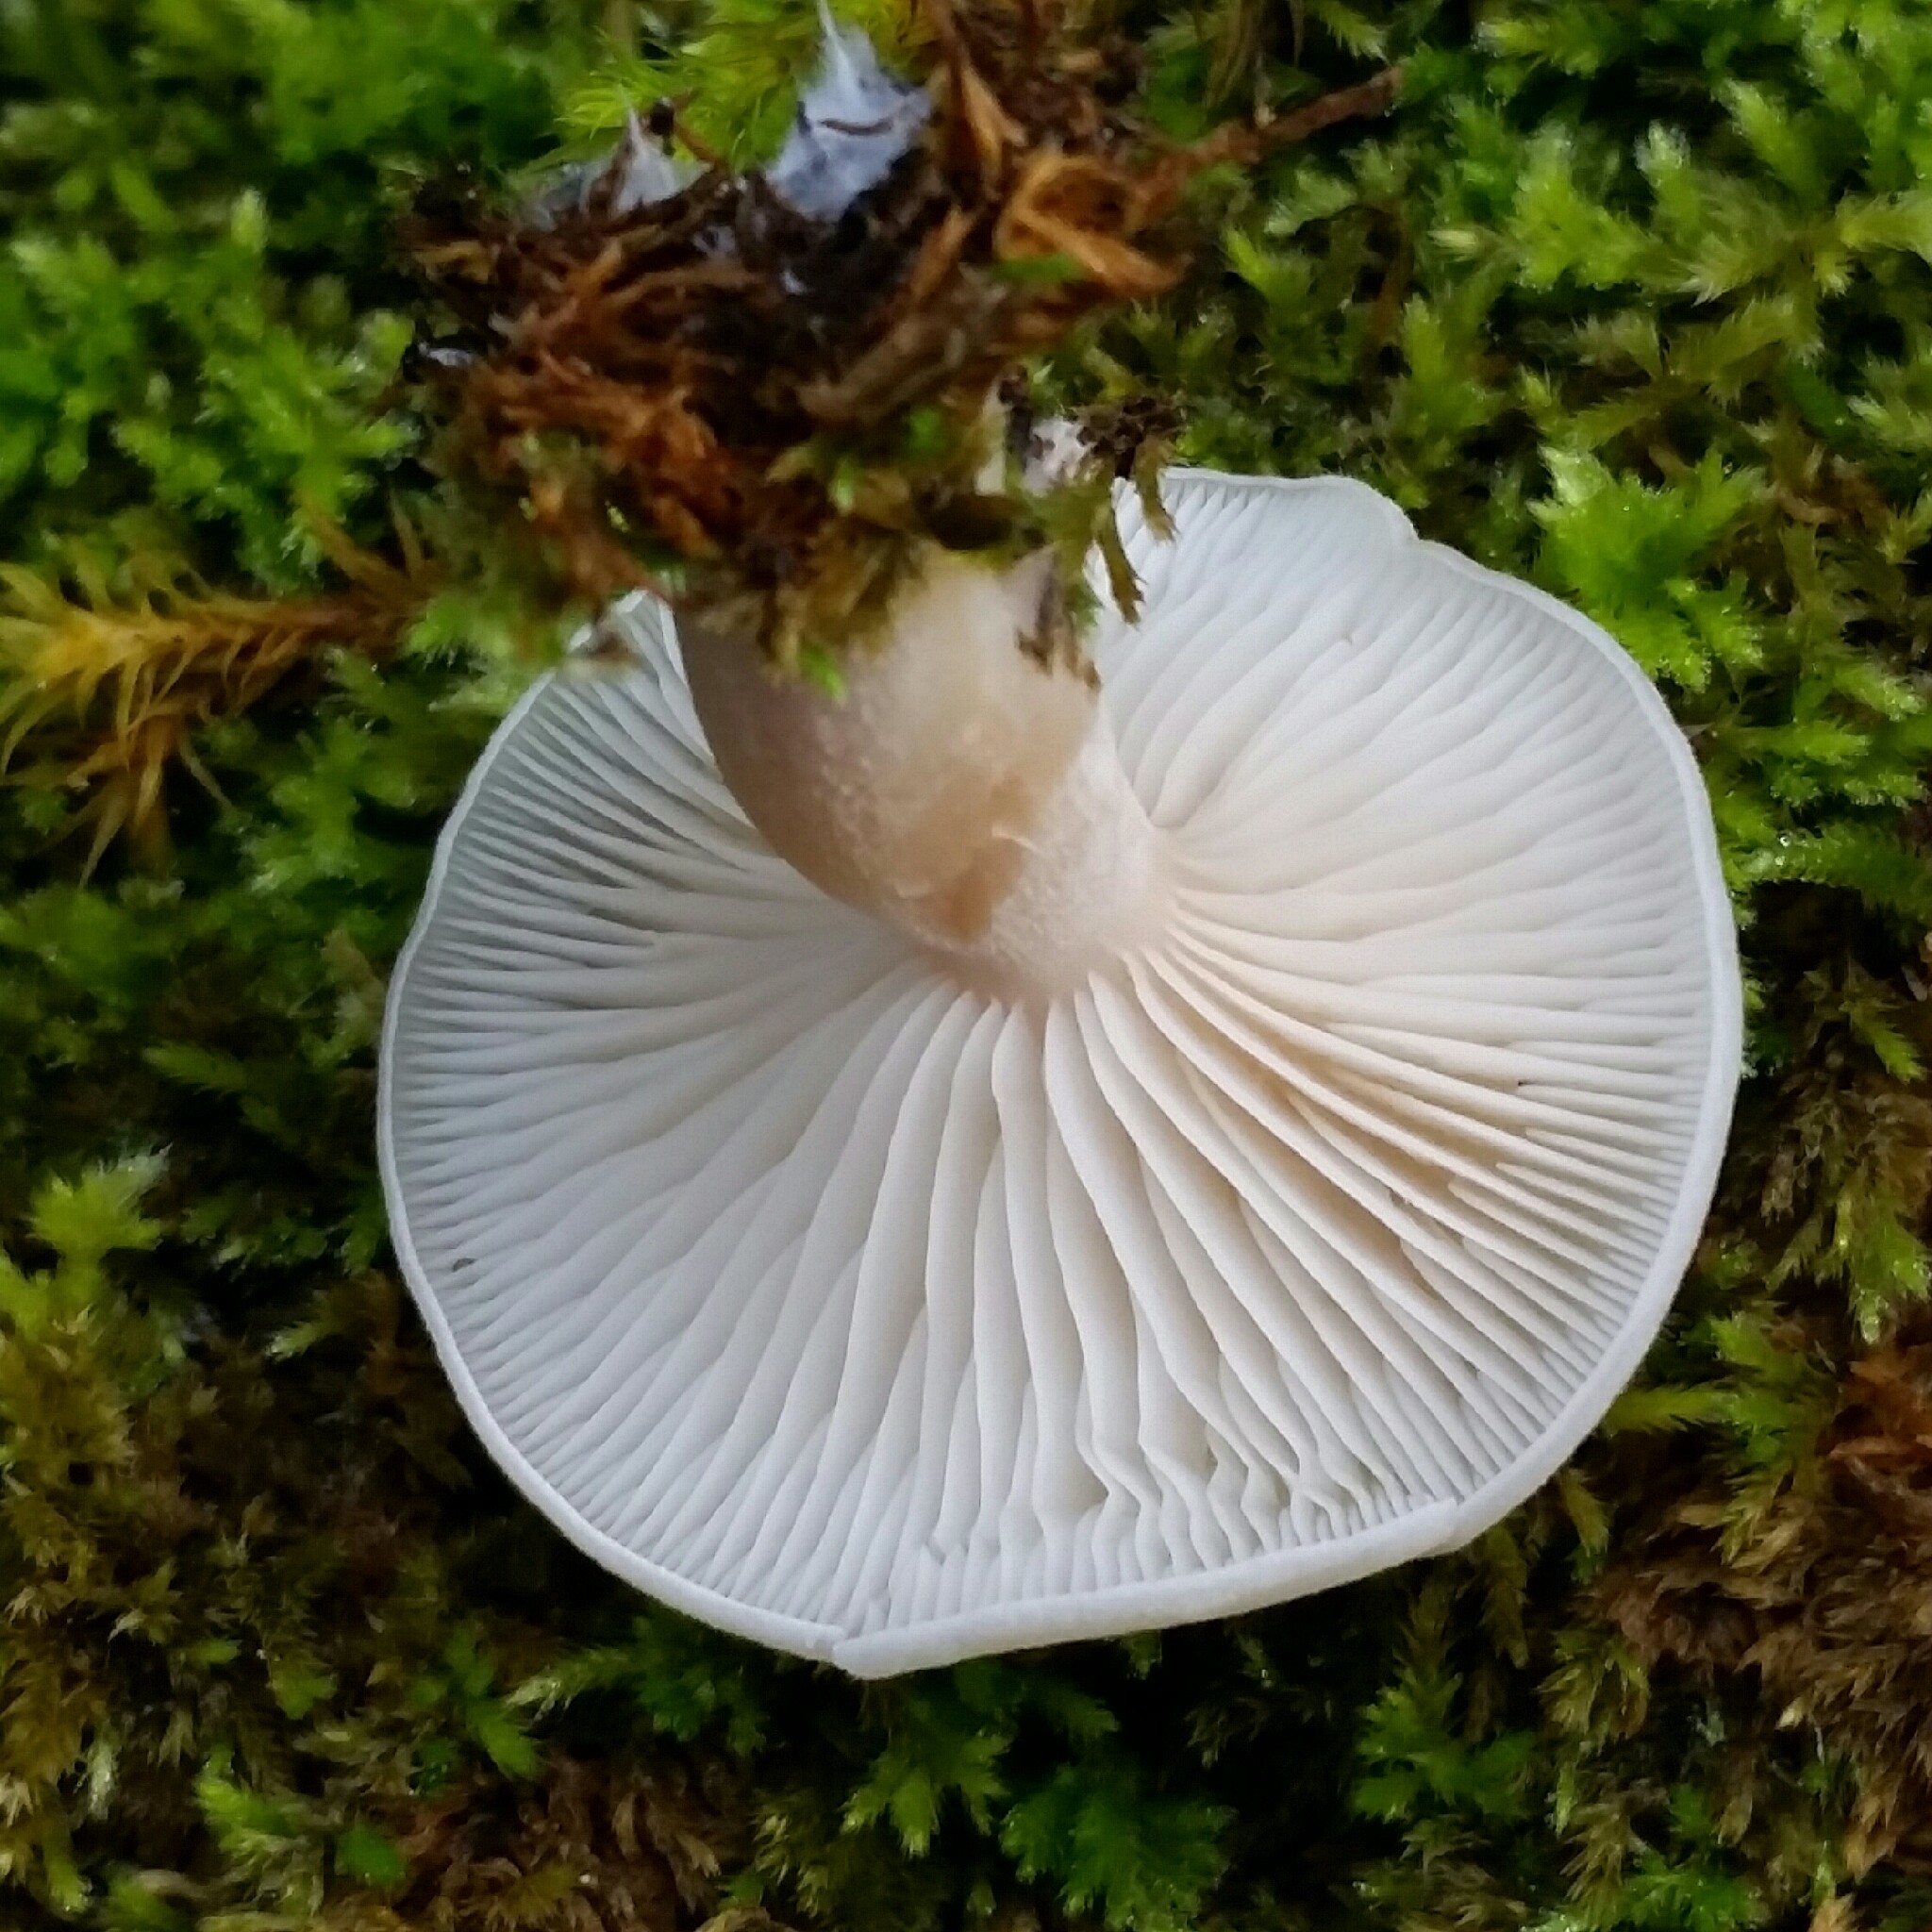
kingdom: Fungi
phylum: Basidiomycota
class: Agaricomycetes
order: Agaricales
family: Hygrophoraceae
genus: Cuphophyllus
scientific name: Cuphophyllus virgineus
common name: Snowy waxcap
